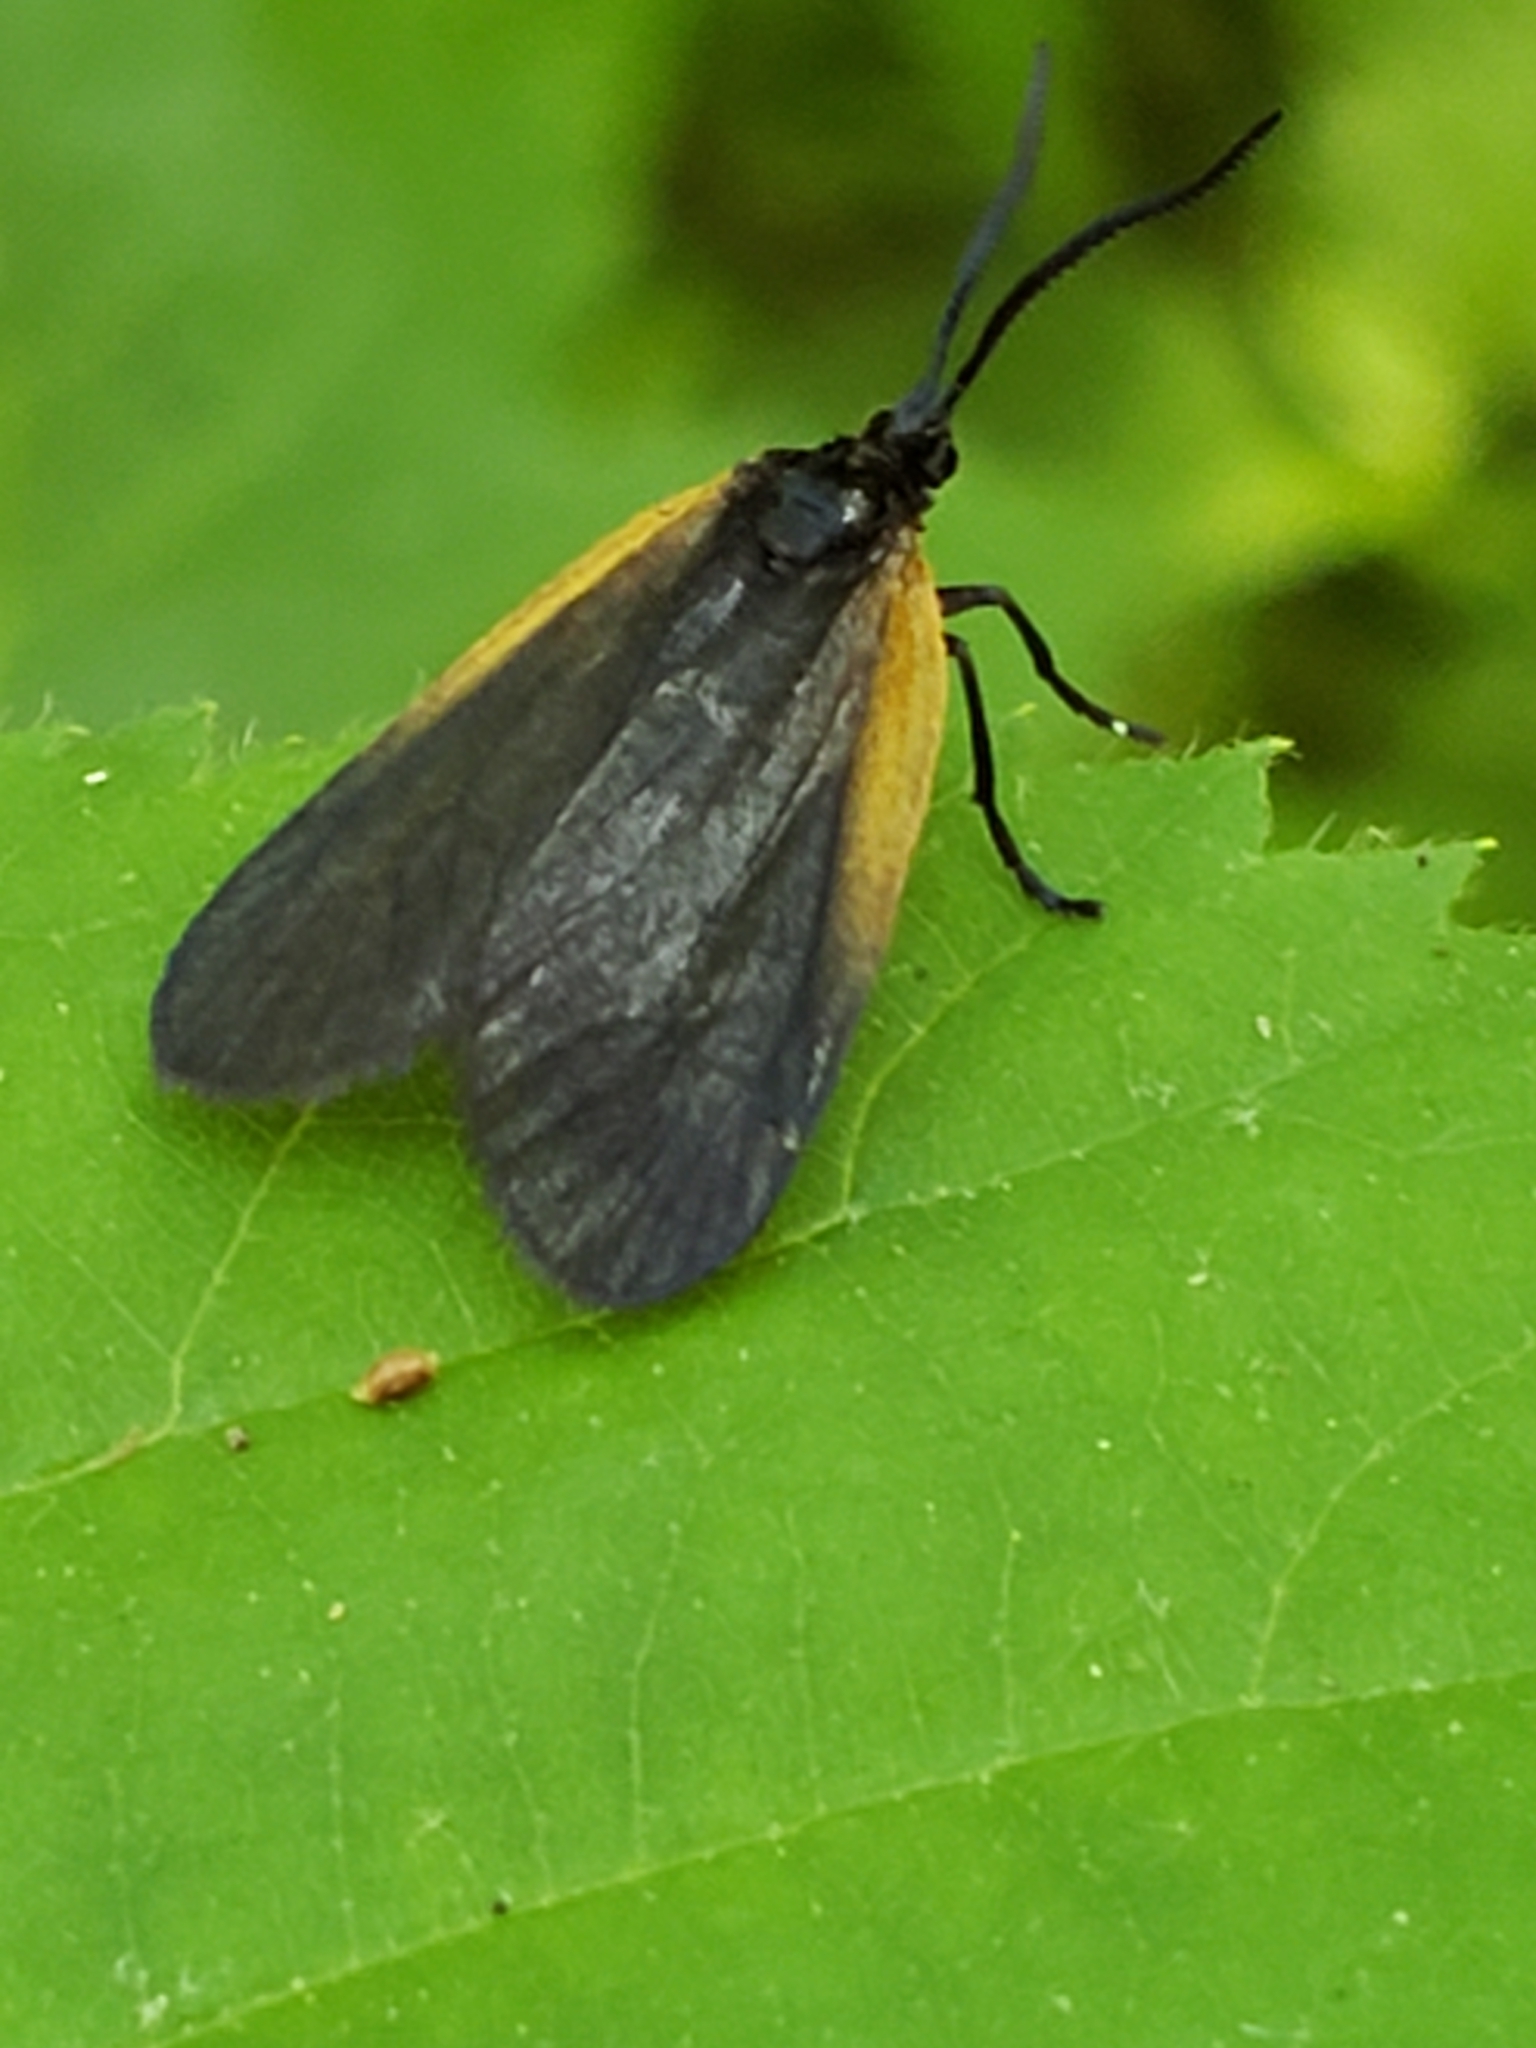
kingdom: Animalia
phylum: Arthropoda
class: Insecta
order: Lepidoptera
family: Zygaenidae
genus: Malthaca
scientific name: Malthaca dimidiata
